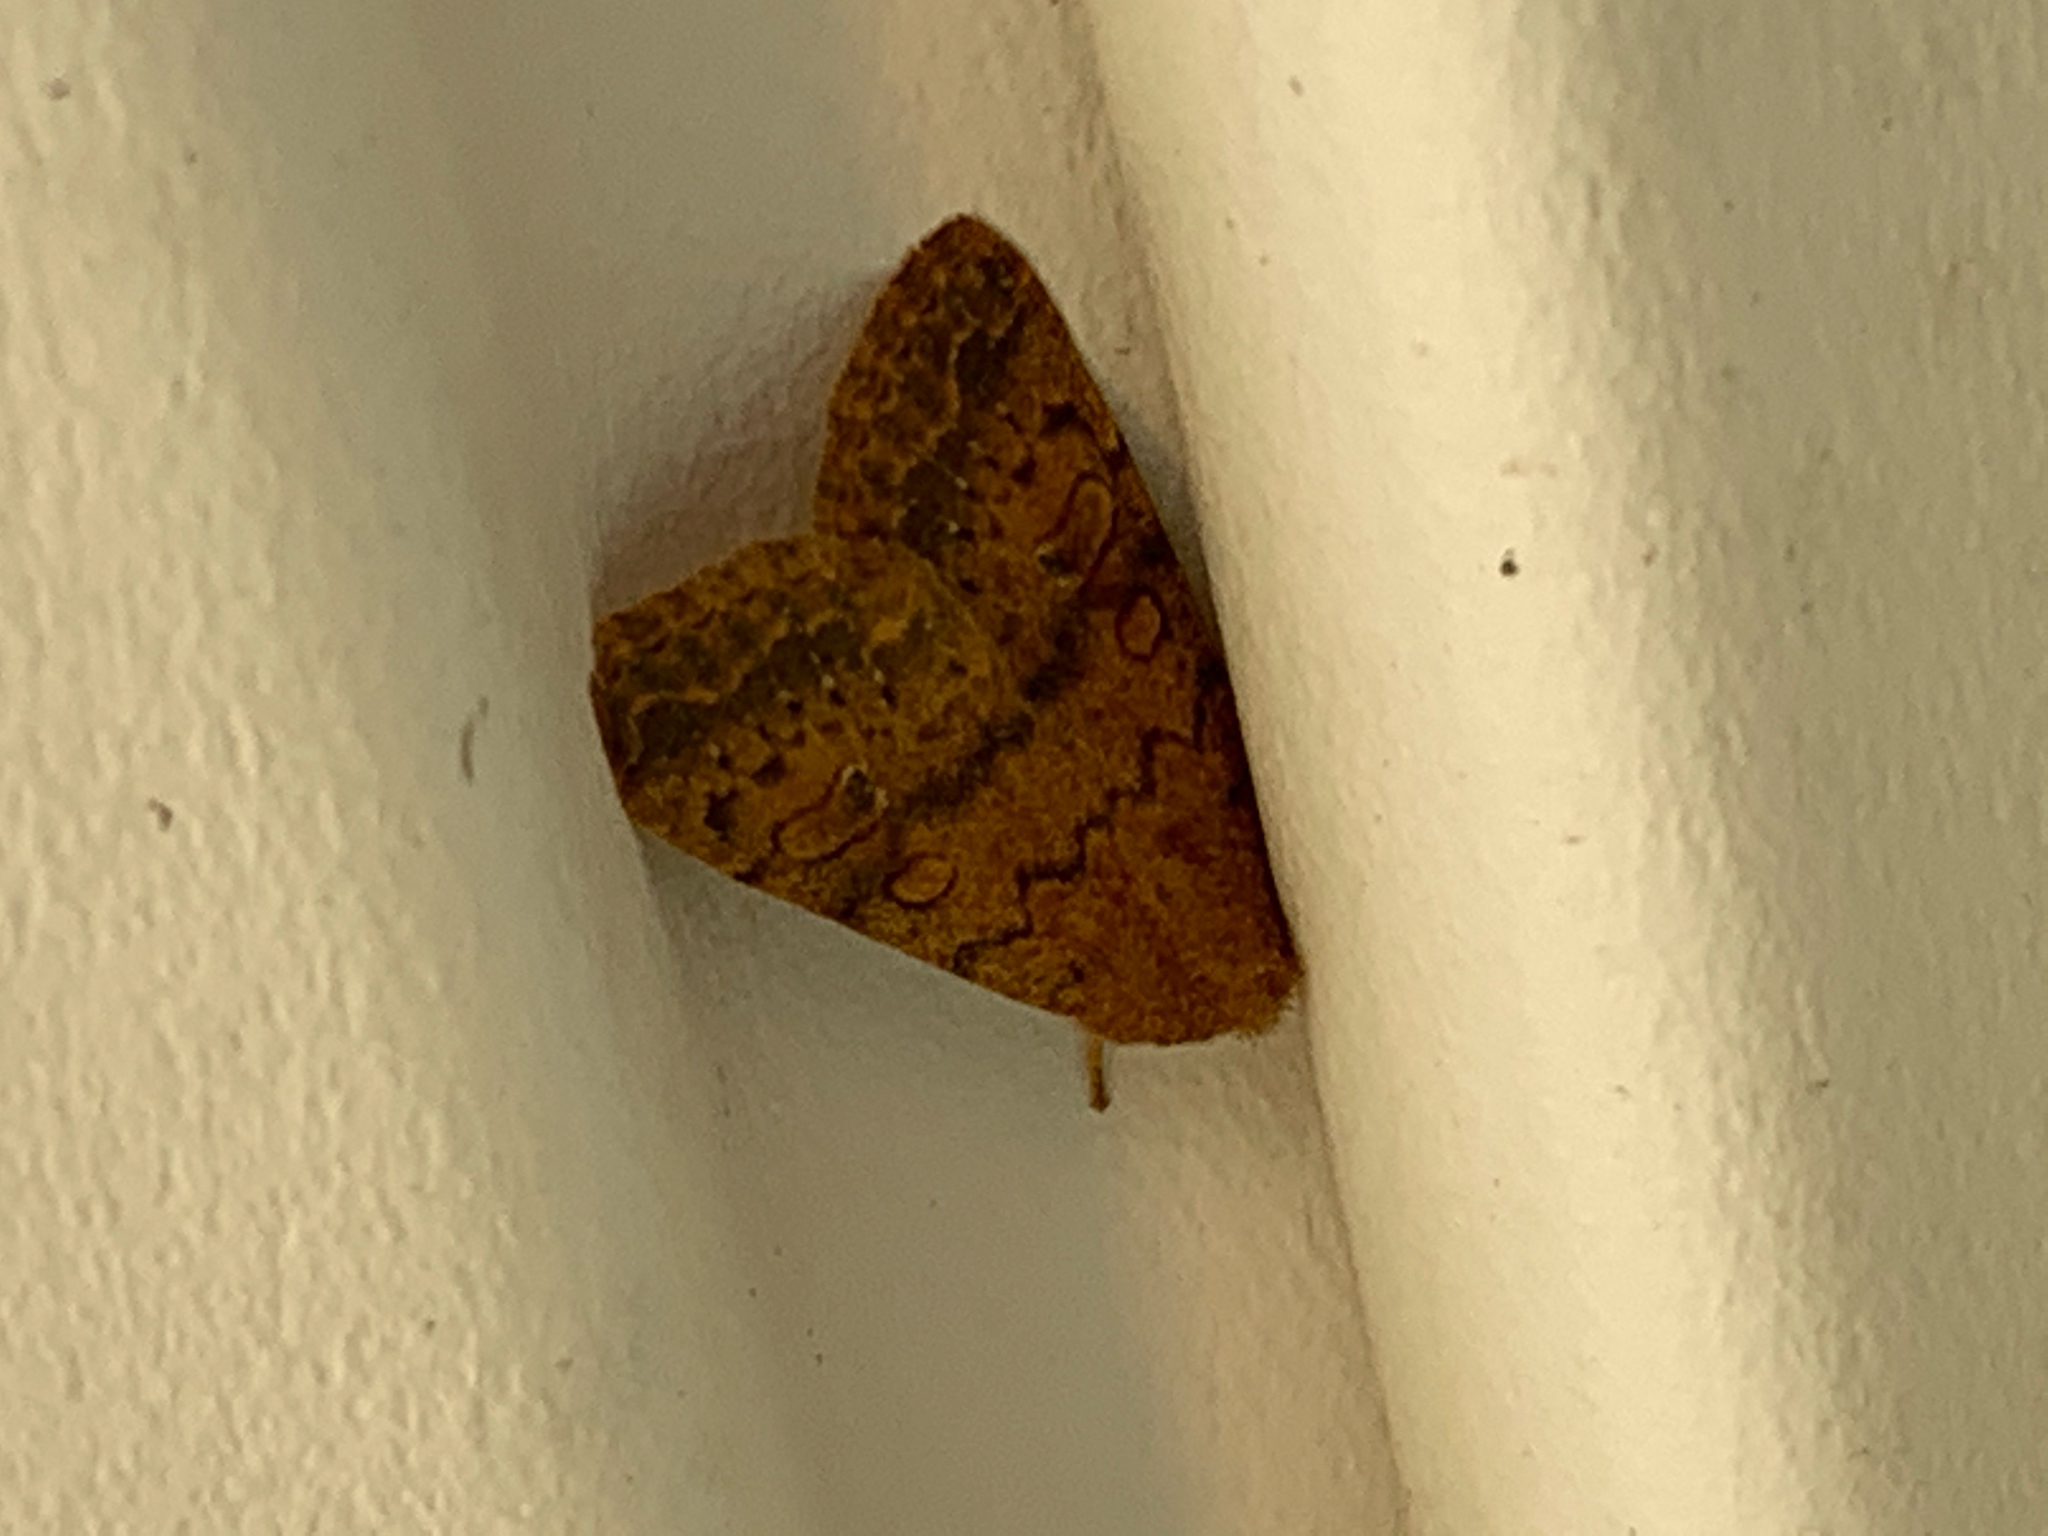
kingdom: Animalia
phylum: Arthropoda
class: Insecta
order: Lepidoptera
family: Noctuidae
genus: Agrochola
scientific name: Agrochola bicolorago
